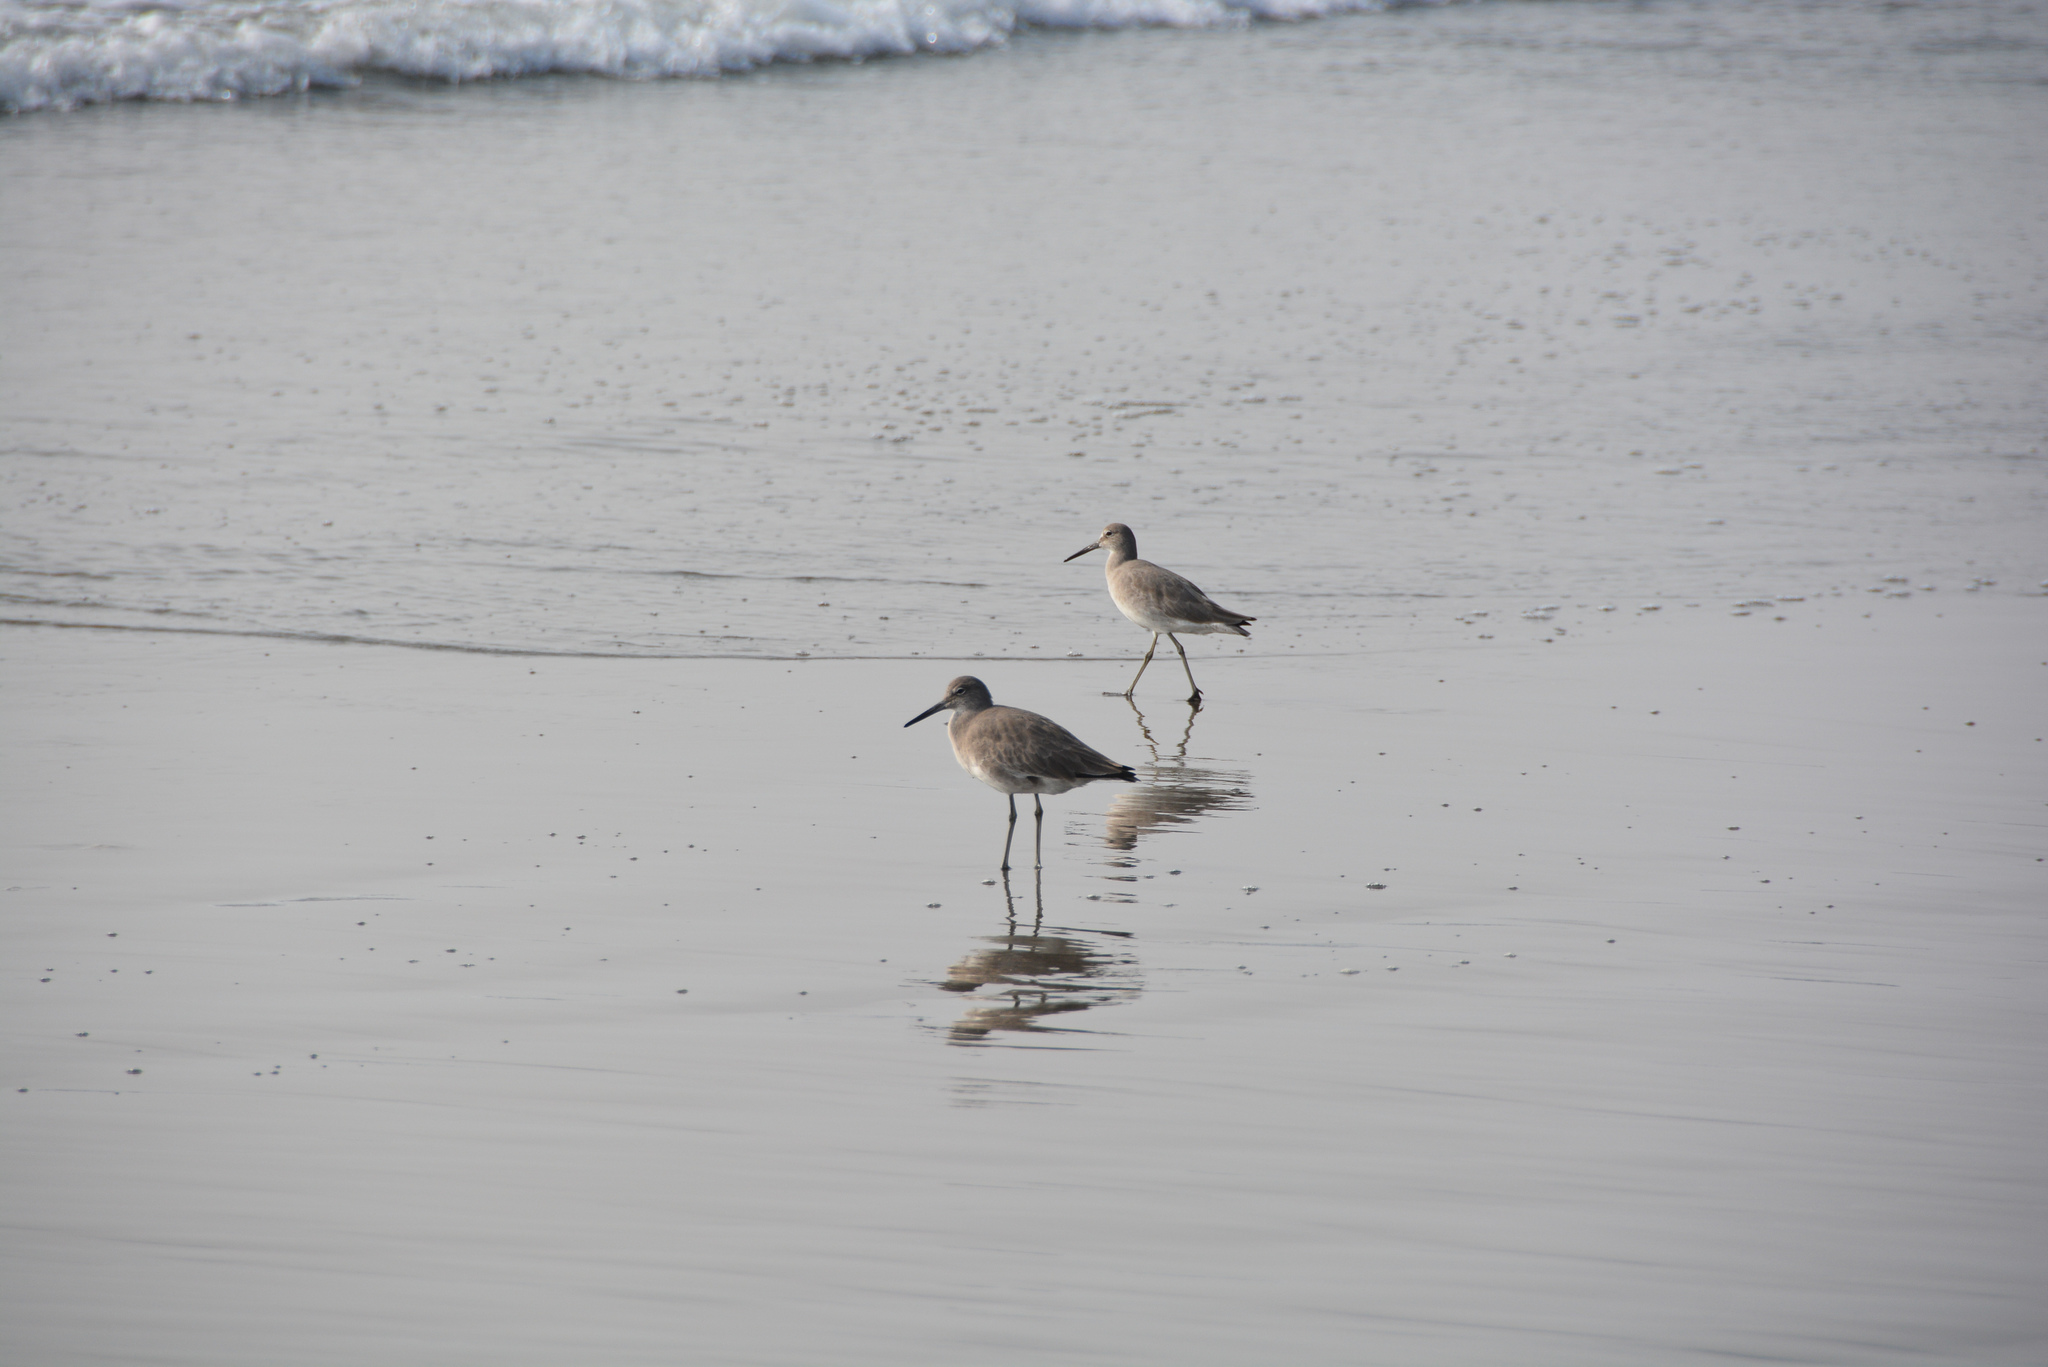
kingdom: Animalia
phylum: Chordata
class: Aves
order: Charadriiformes
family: Scolopacidae
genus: Tringa
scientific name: Tringa semipalmata
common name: Willet
